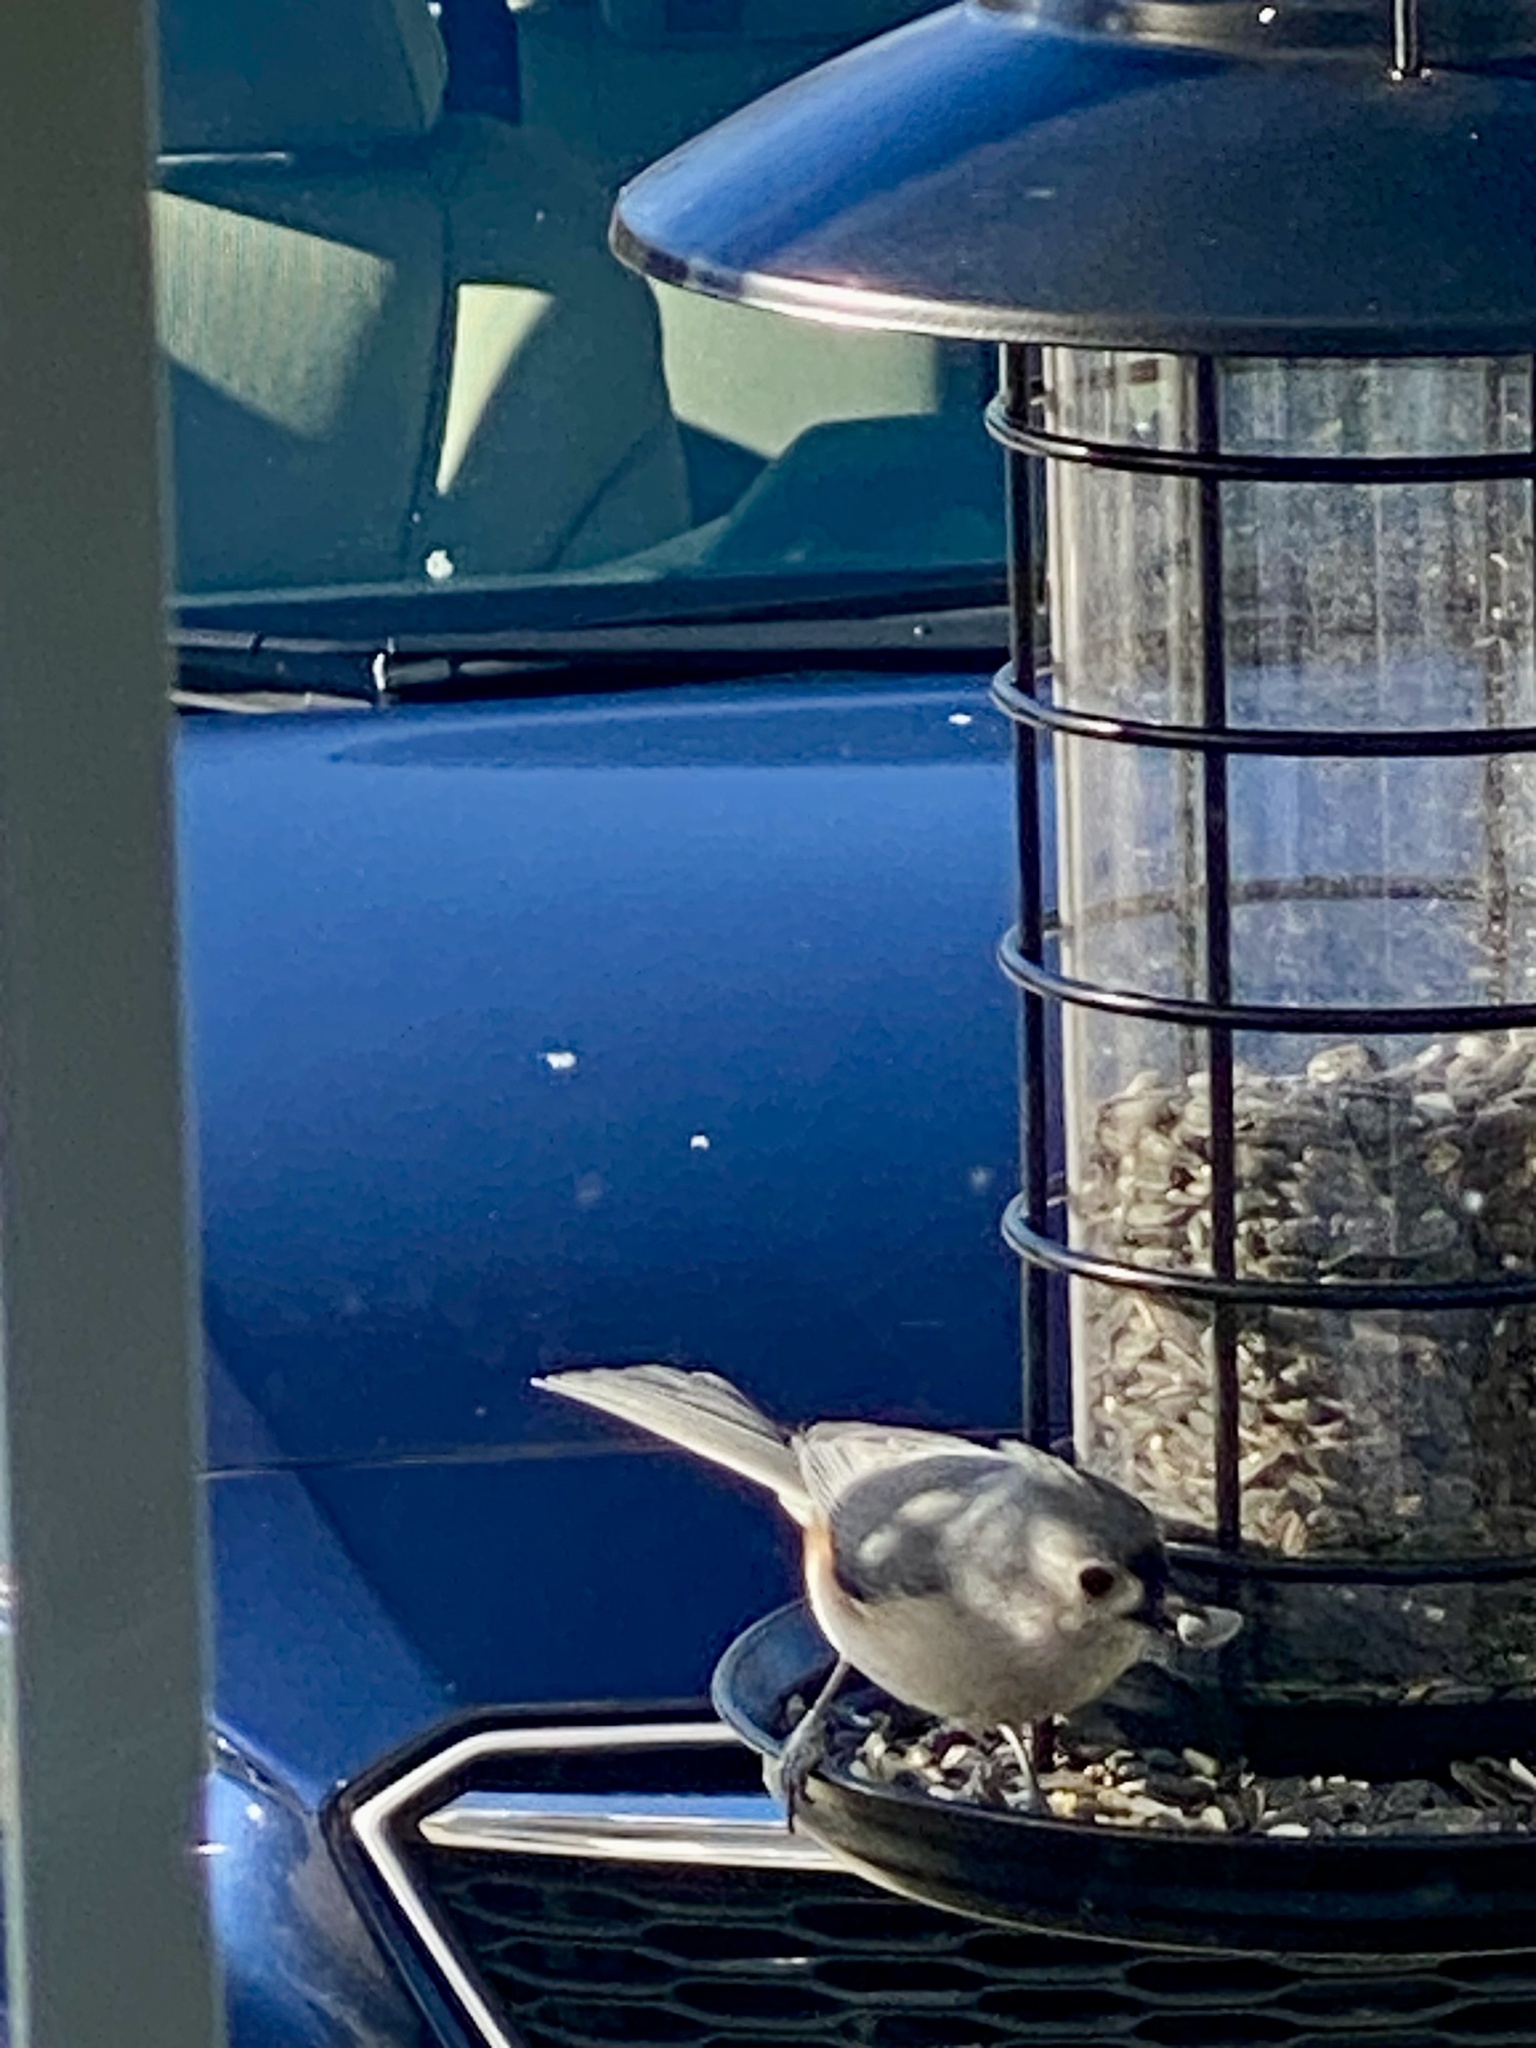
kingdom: Animalia
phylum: Chordata
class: Aves
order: Passeriformes
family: Paridae
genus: Baeolophus
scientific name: Baeolophus bicolor
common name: Tufted titmouse
